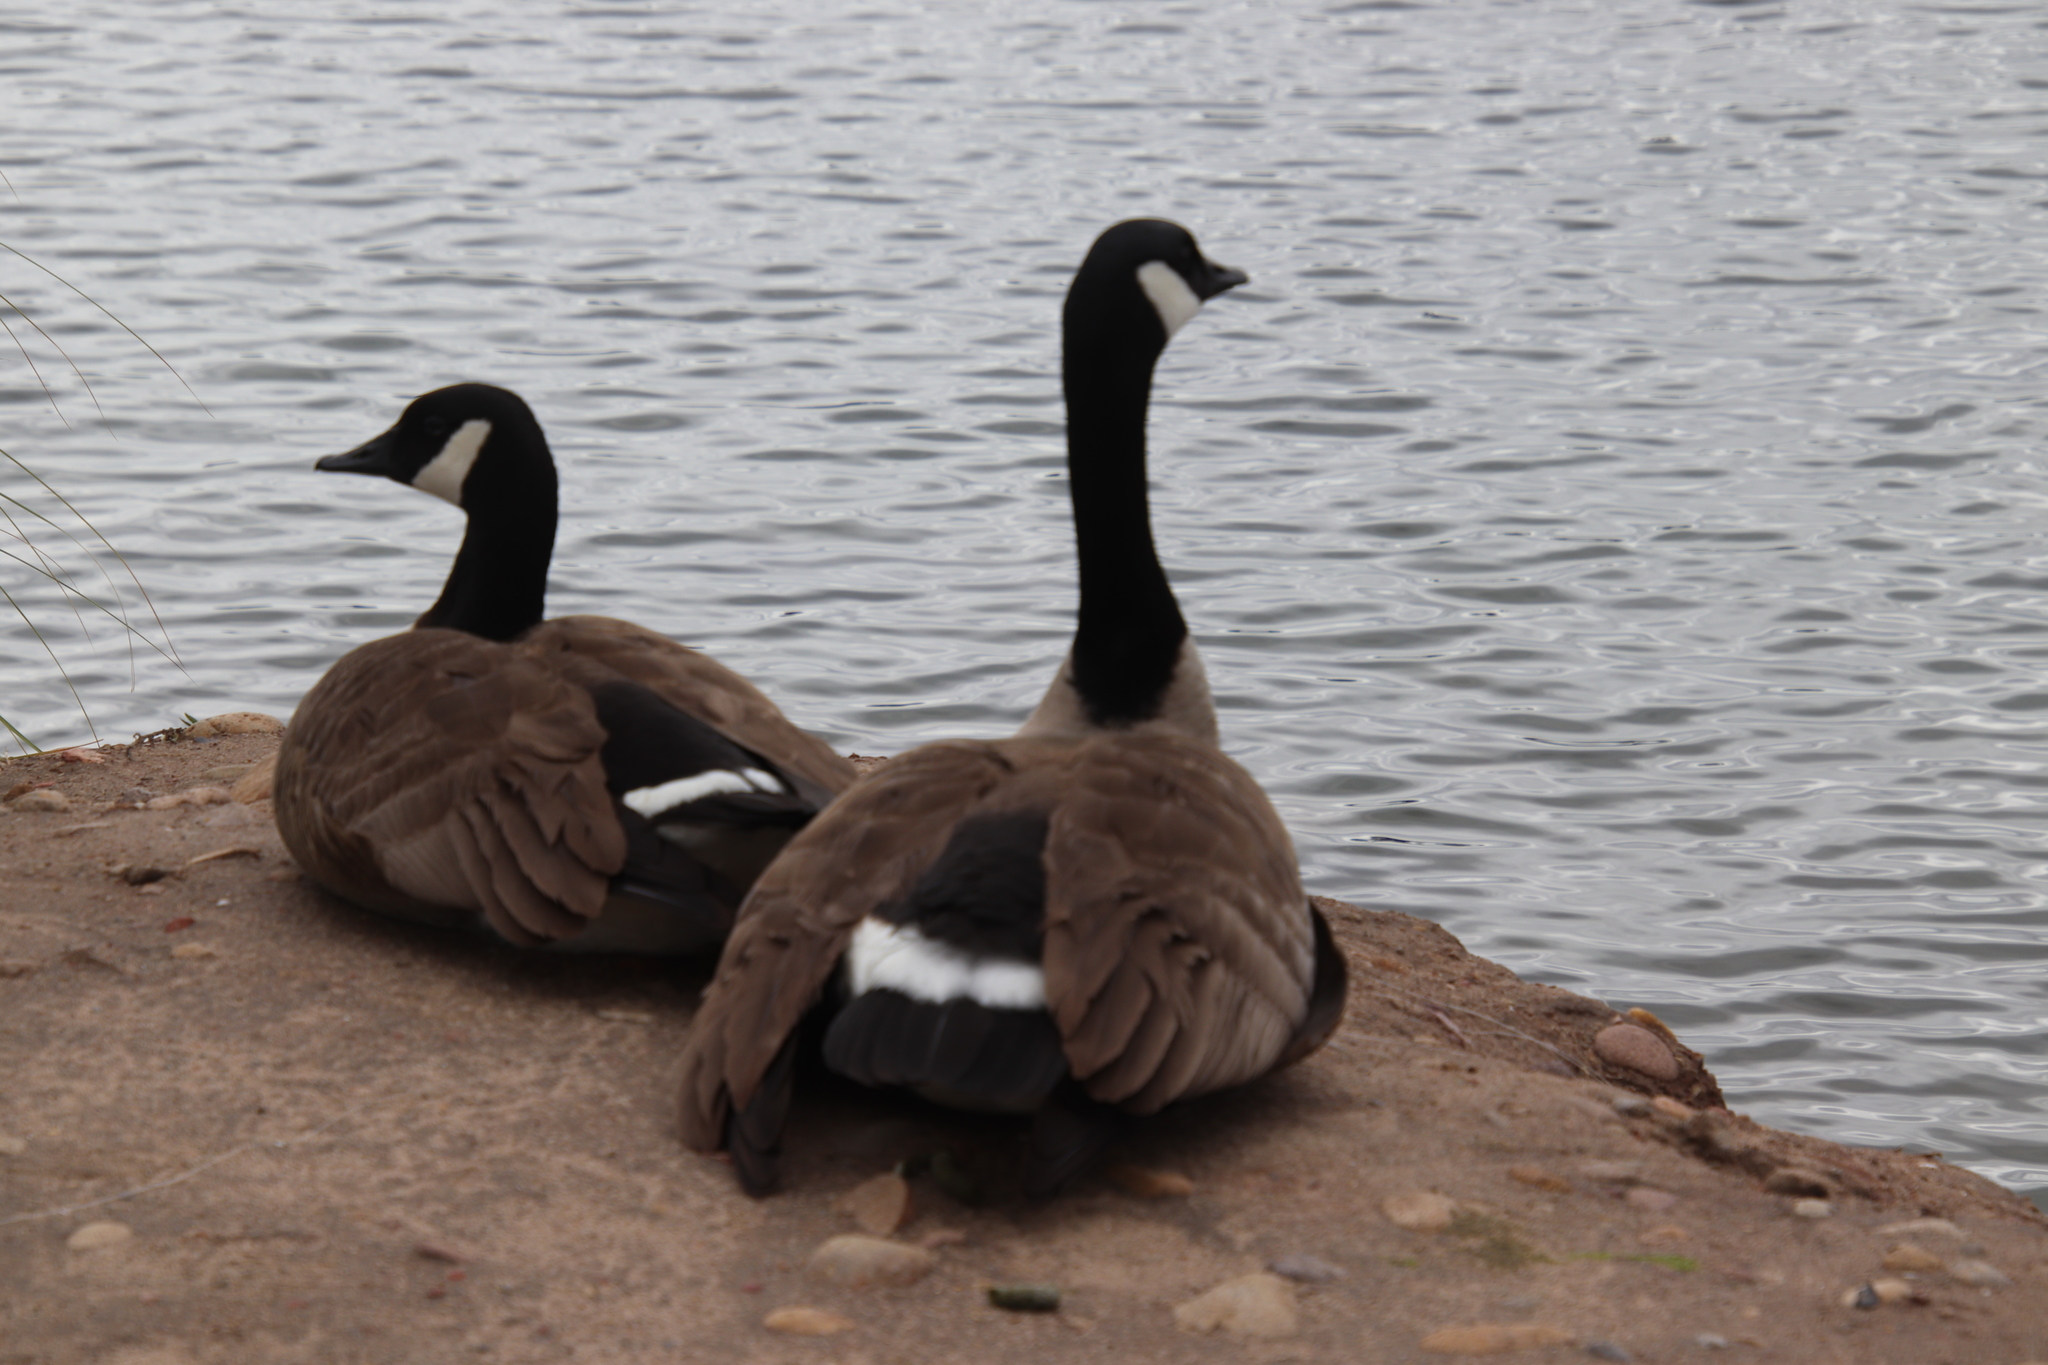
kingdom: Animalia
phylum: Chordata
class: Aves
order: Anseriformes
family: Anatidae
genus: Branta
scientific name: Branta canadensis
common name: Canada goose
